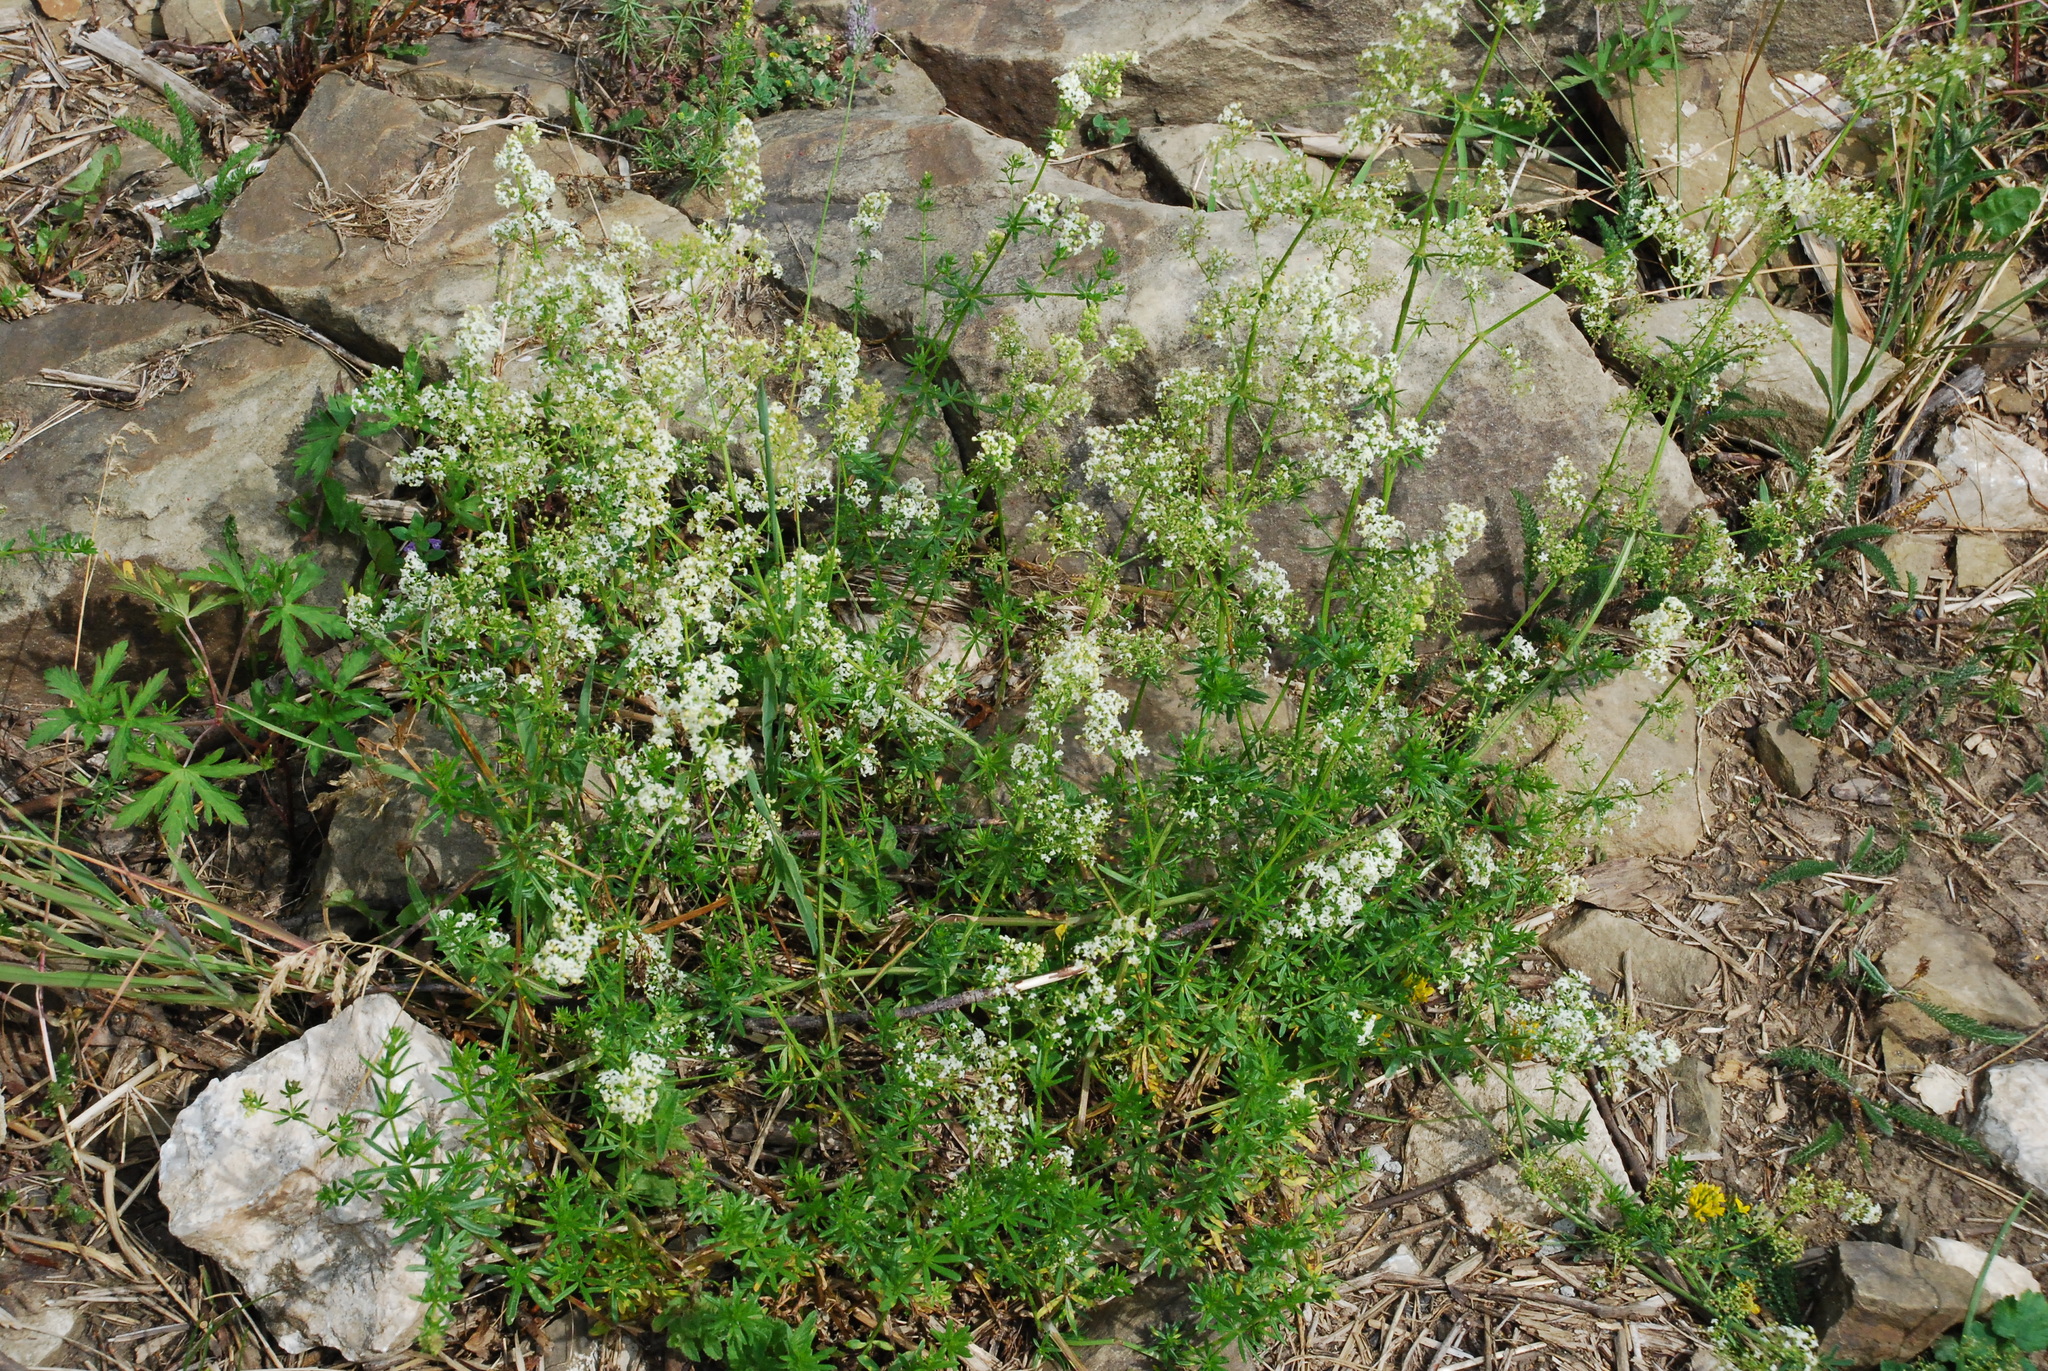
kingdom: Plantae
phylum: Tracheophyta
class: Magnoliopsida
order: Gentianales
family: Rubiaceae
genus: Galium
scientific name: Galium pomeranicum
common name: Bedstraw
